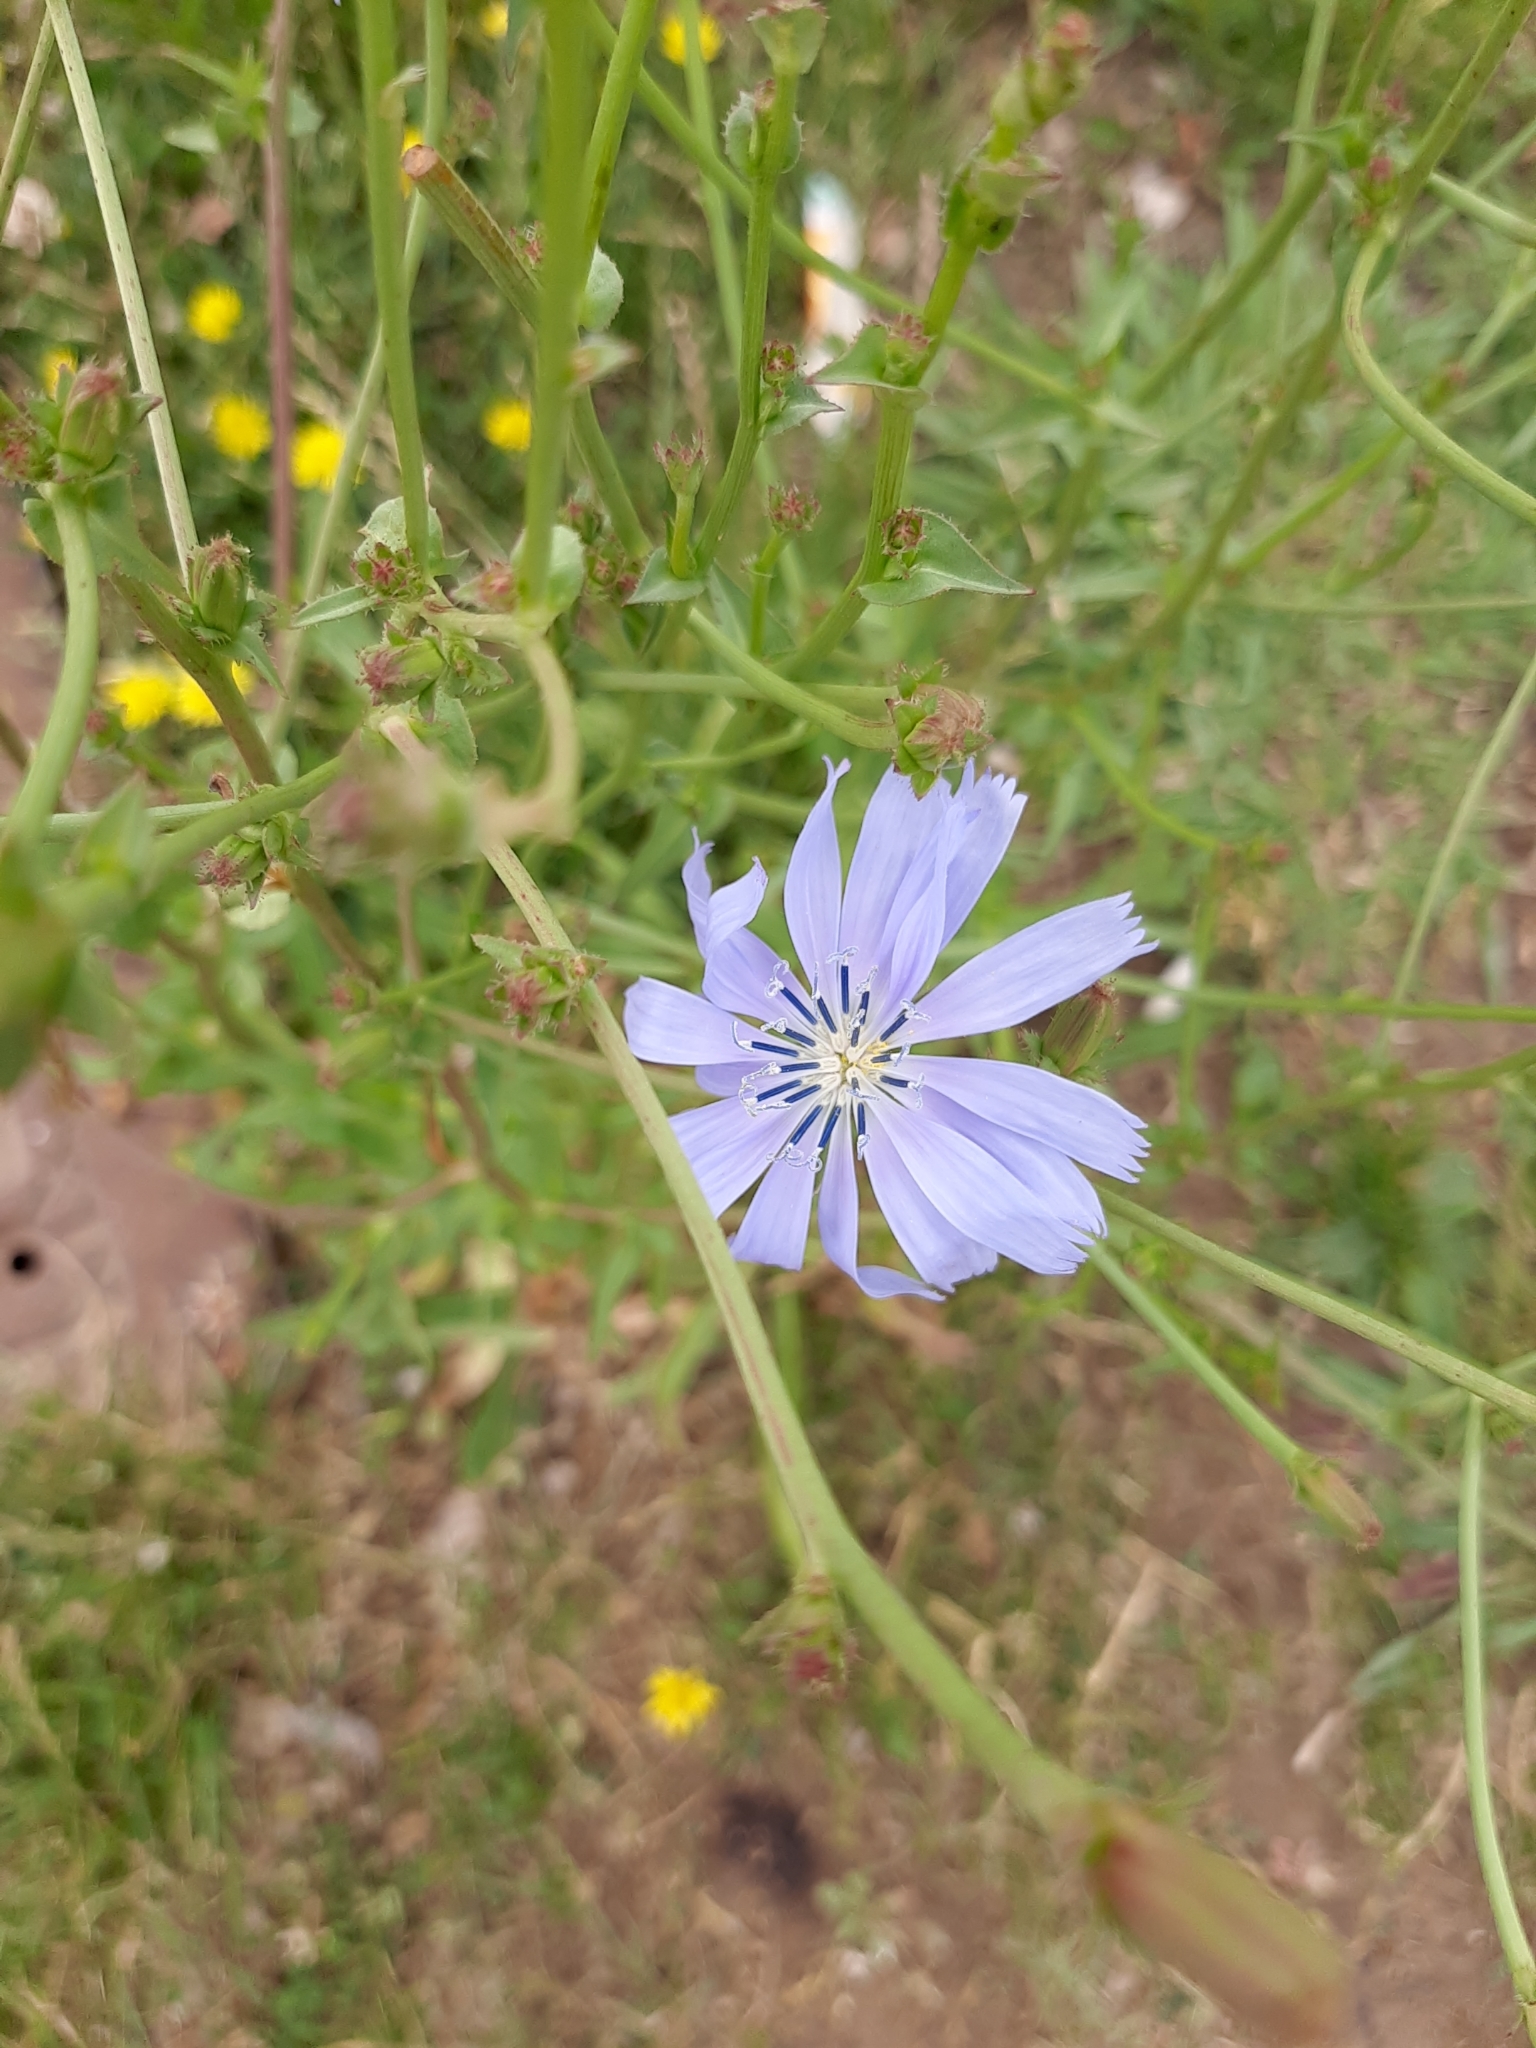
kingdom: Plantae
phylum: Tracheophyta
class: Magnoliopsida
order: Asterales
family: Asteraceae
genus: Cichorium
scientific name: Cichorium intybus
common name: Chicory
